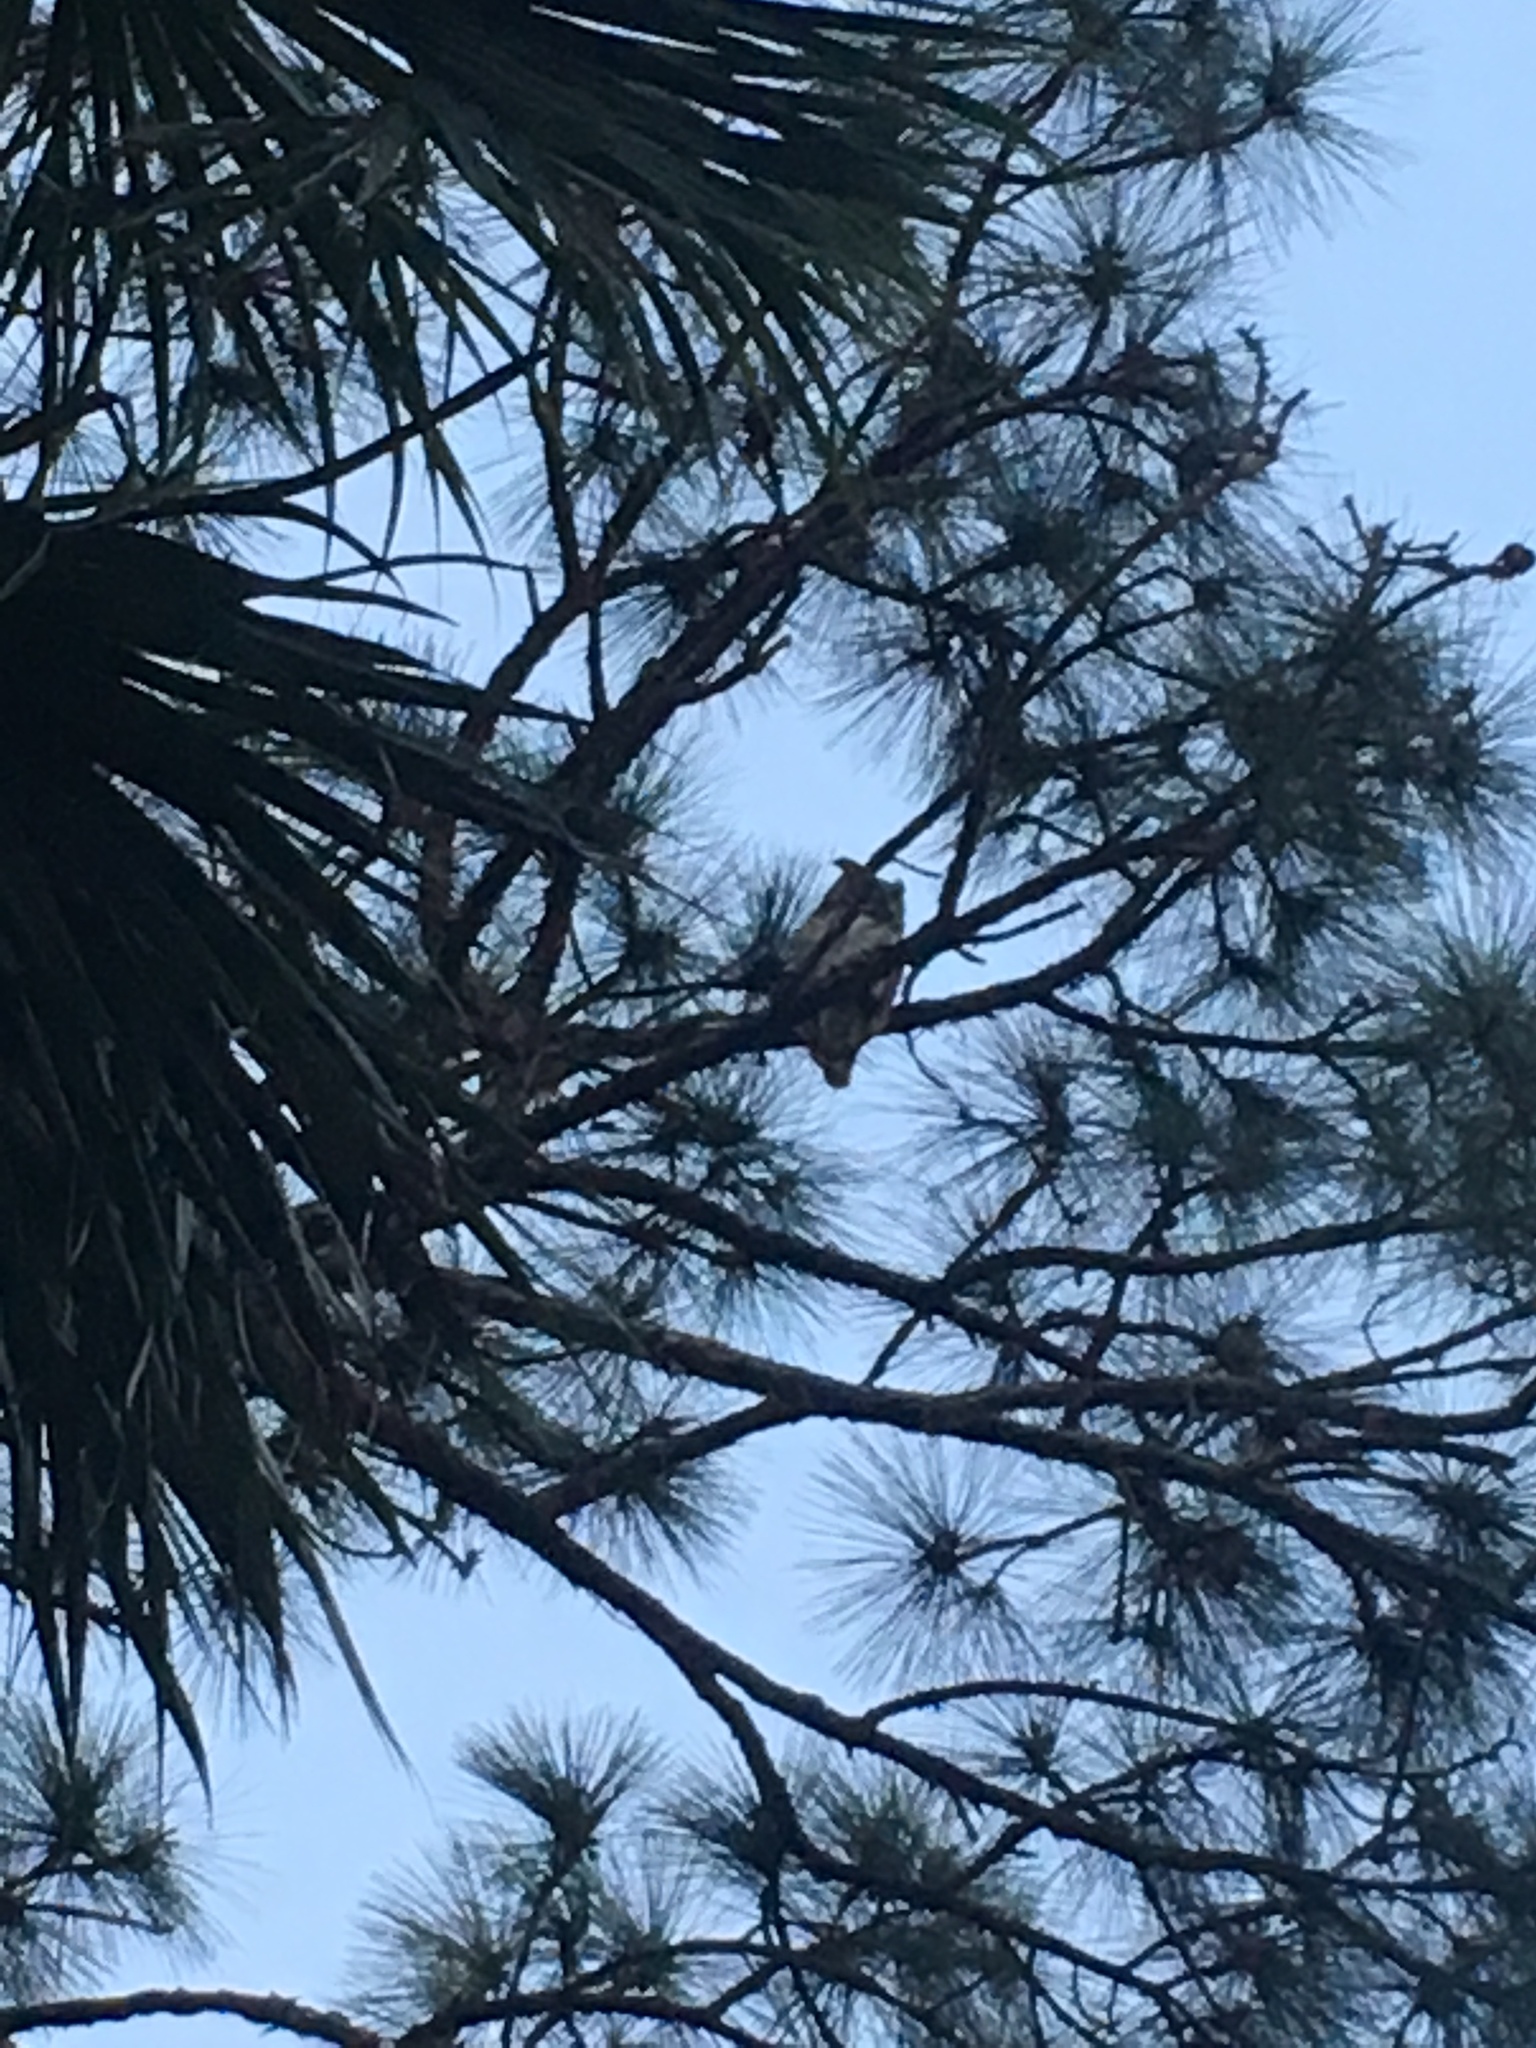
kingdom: Animalia
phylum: Chordata
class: Aves
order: Strigiformes
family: Strigidae
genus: Bubo
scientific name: Bubo virginianus
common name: Great horned owl
